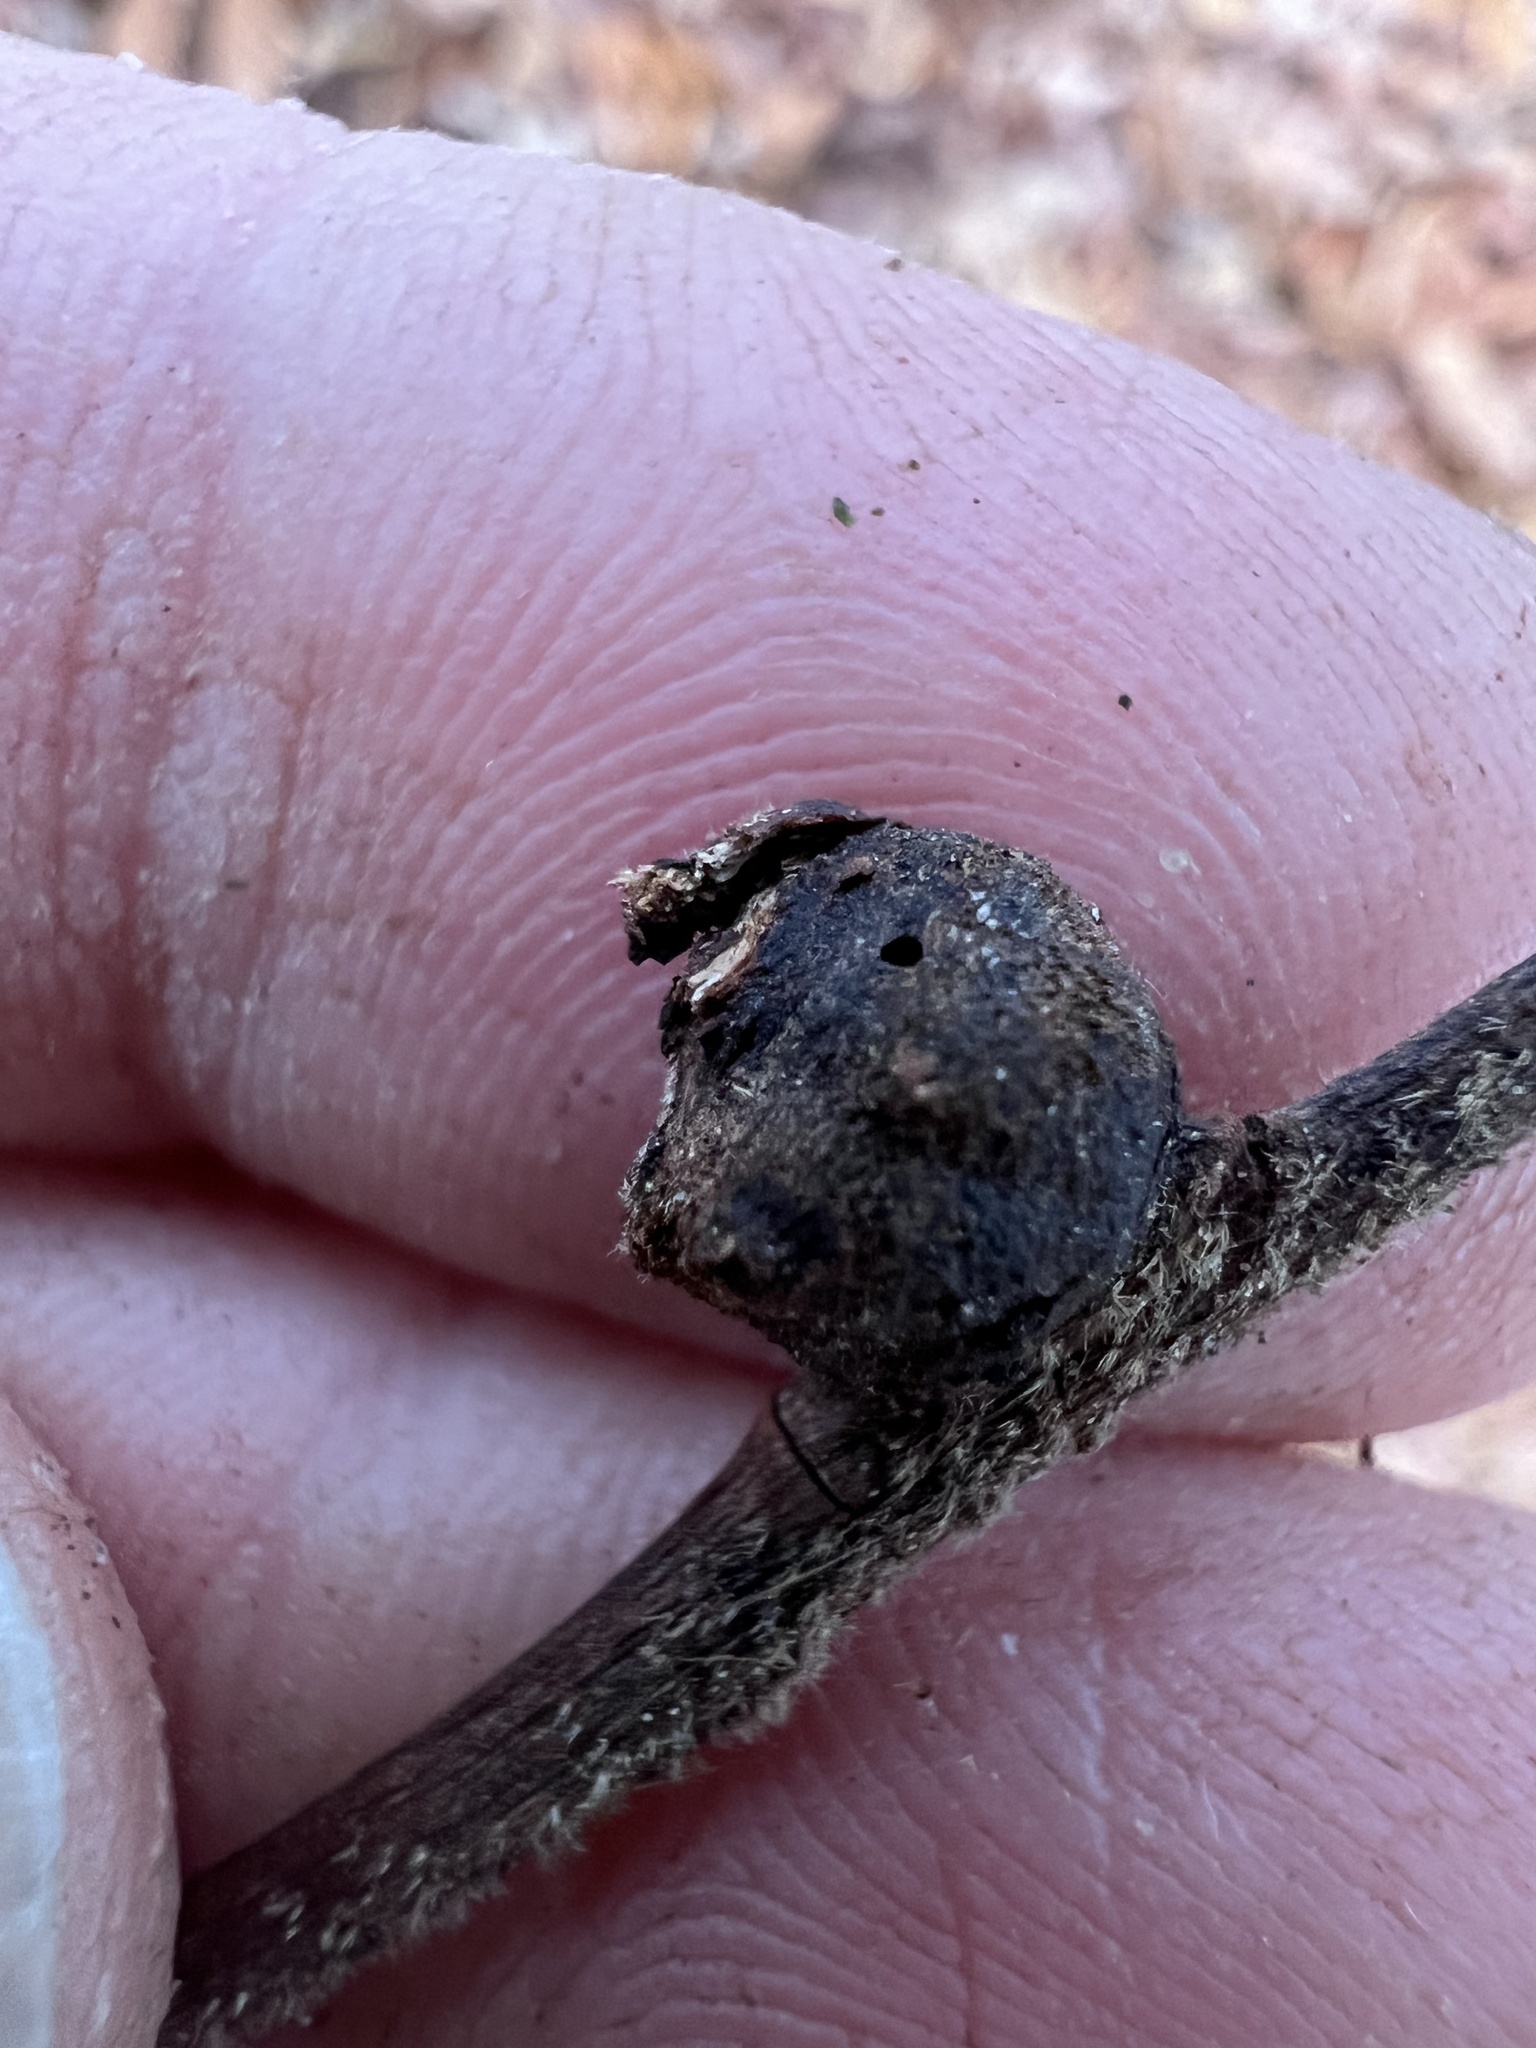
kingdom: Animalia
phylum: Arthropoda
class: Insecta
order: Hymenoptera
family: Cynipidae
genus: Disholcaspis
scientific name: Disholcaspis
